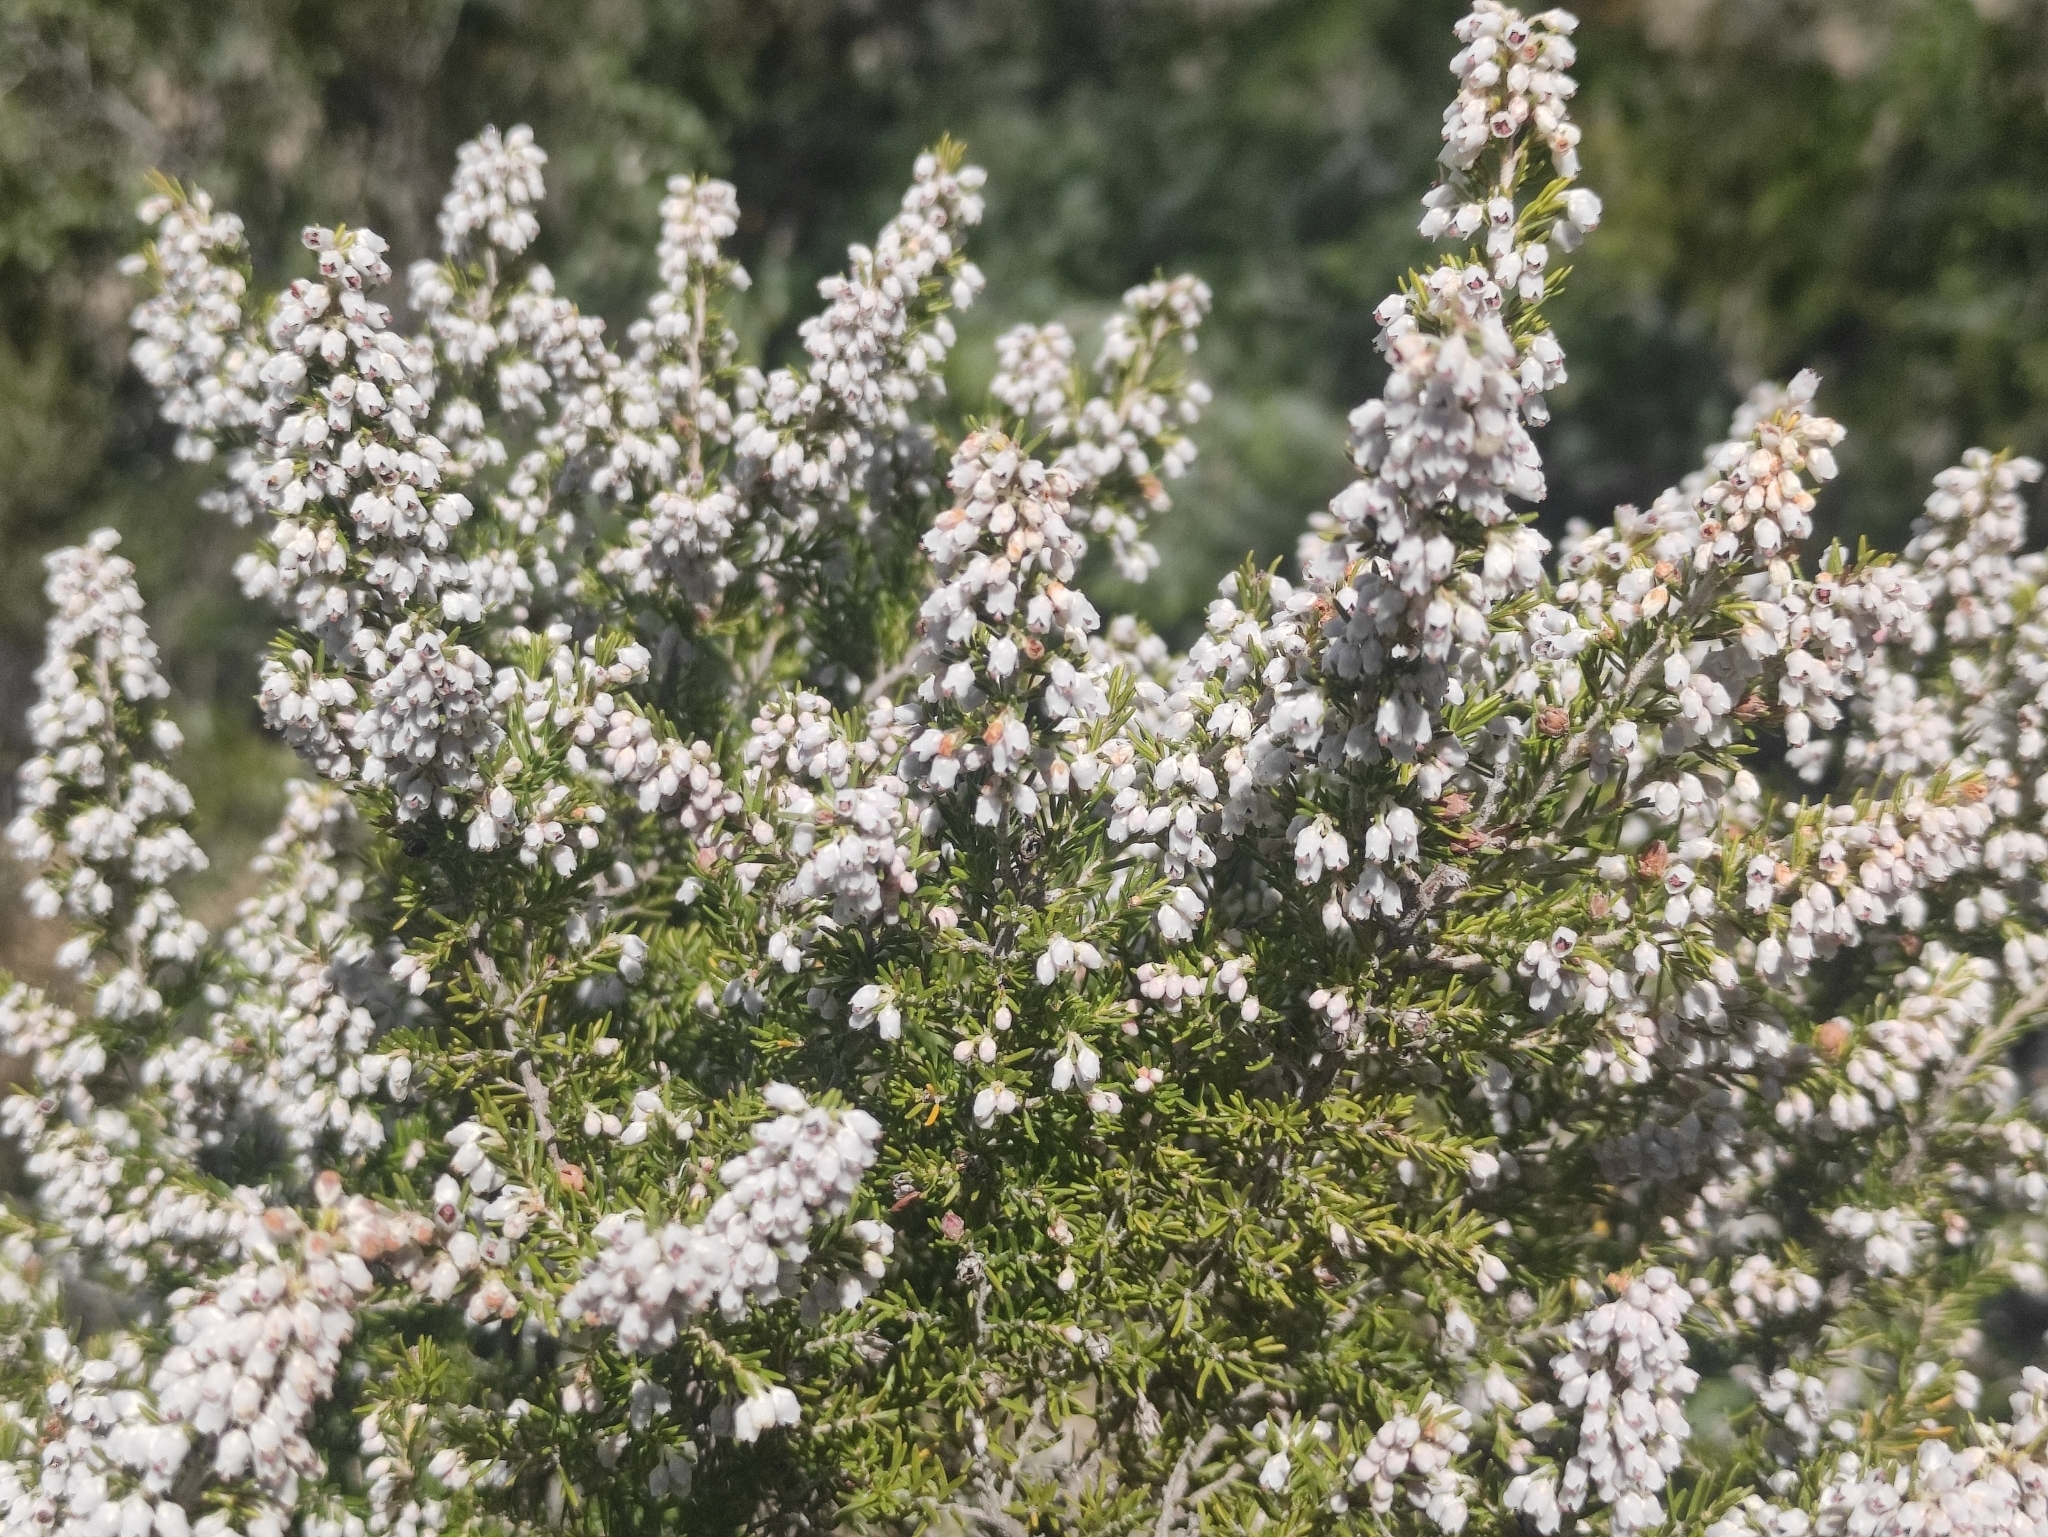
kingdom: Plantae
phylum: Tracheophyta
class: Magnoliopsida
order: Ericales
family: Ericaceae
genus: Erica
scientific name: Erica arborea
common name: Tree heath
